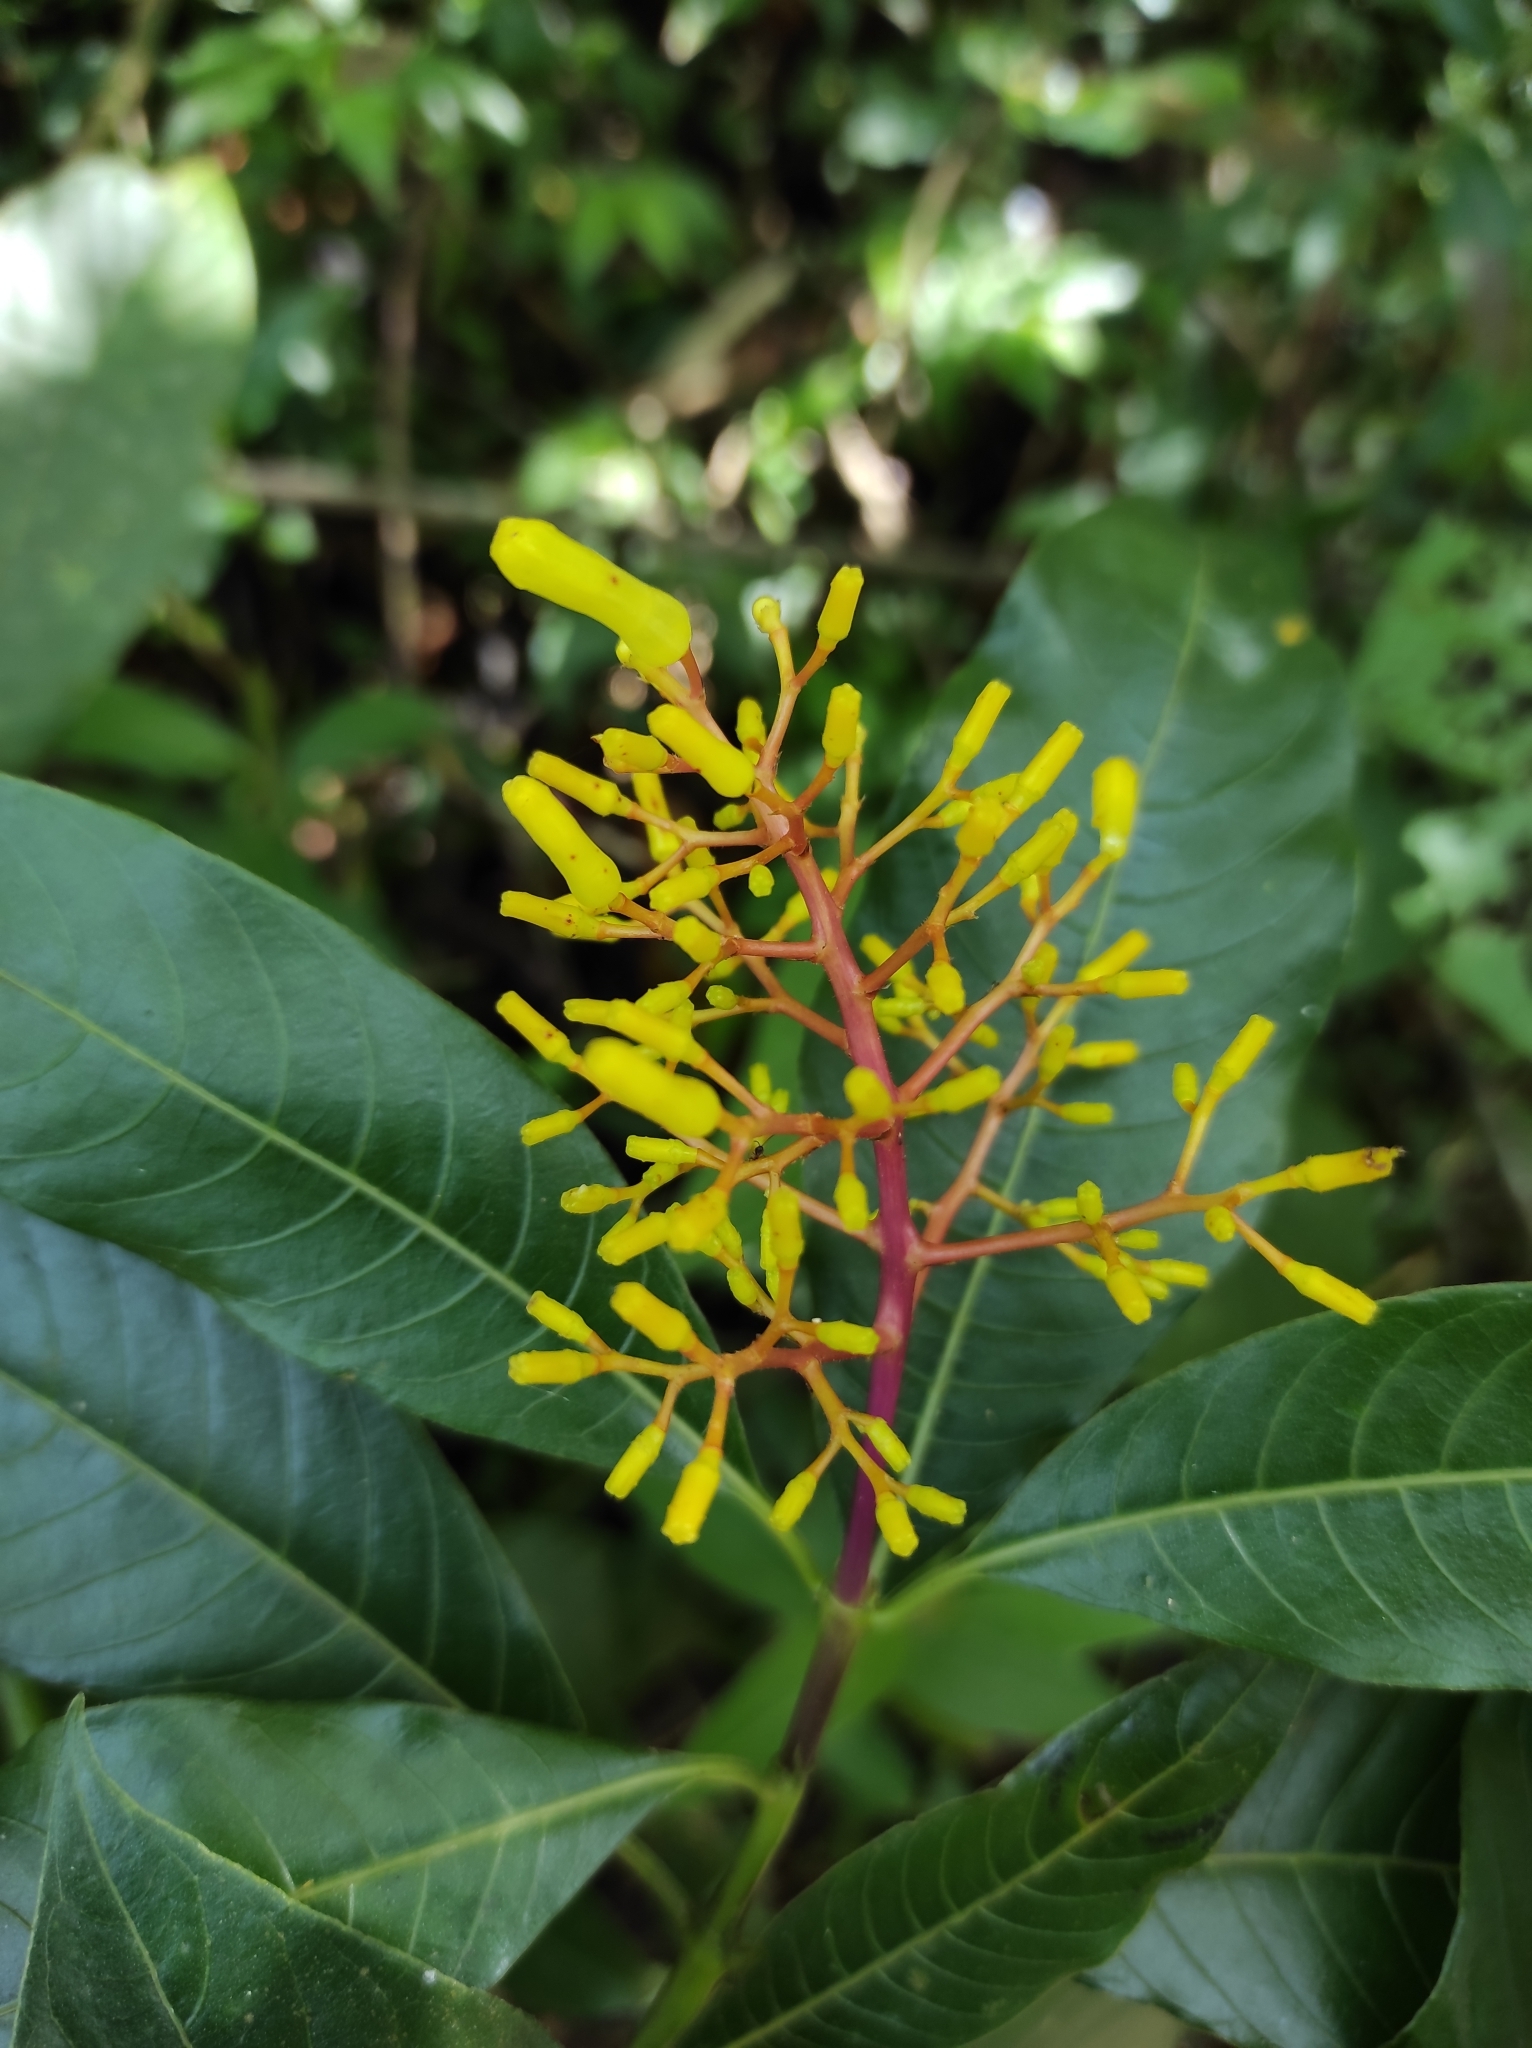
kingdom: Plantae
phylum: Tracheophyta
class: Magnoliopsida
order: Gentianales
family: Rubiaceae
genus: Palicourea
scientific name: Palicourea padifolia
